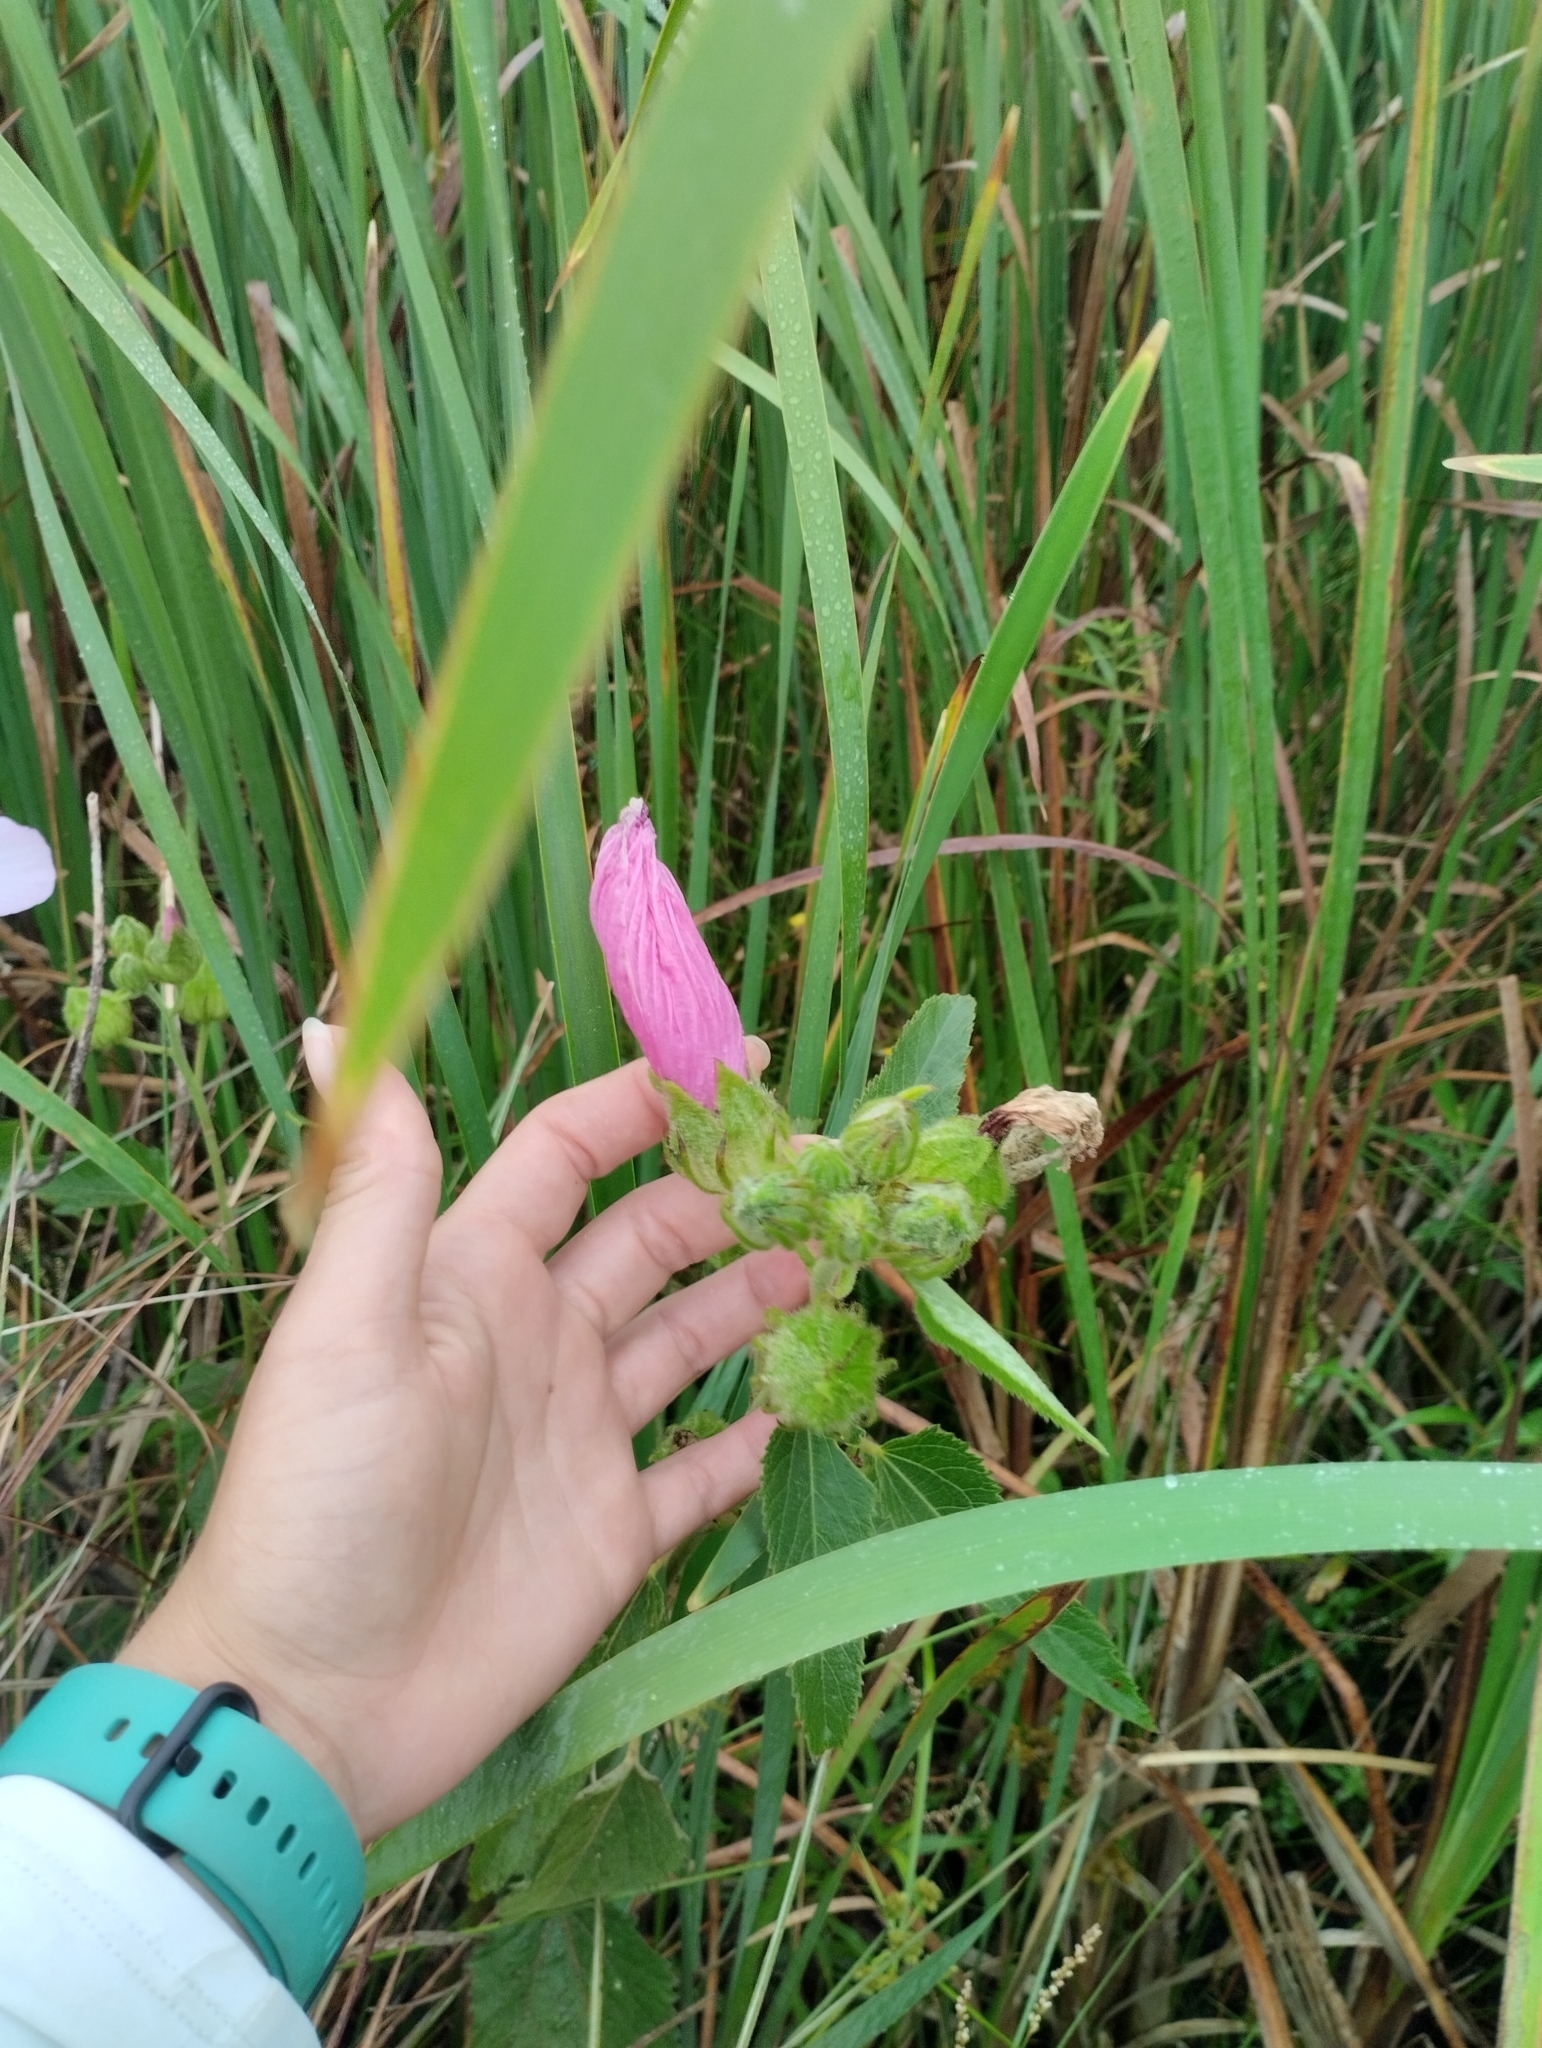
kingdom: Plantae
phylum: Tracheophyta
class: Magnoliopsida
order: Malvales
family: Malvaceae
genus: Hibiscus
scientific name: Hibiscus striatus
